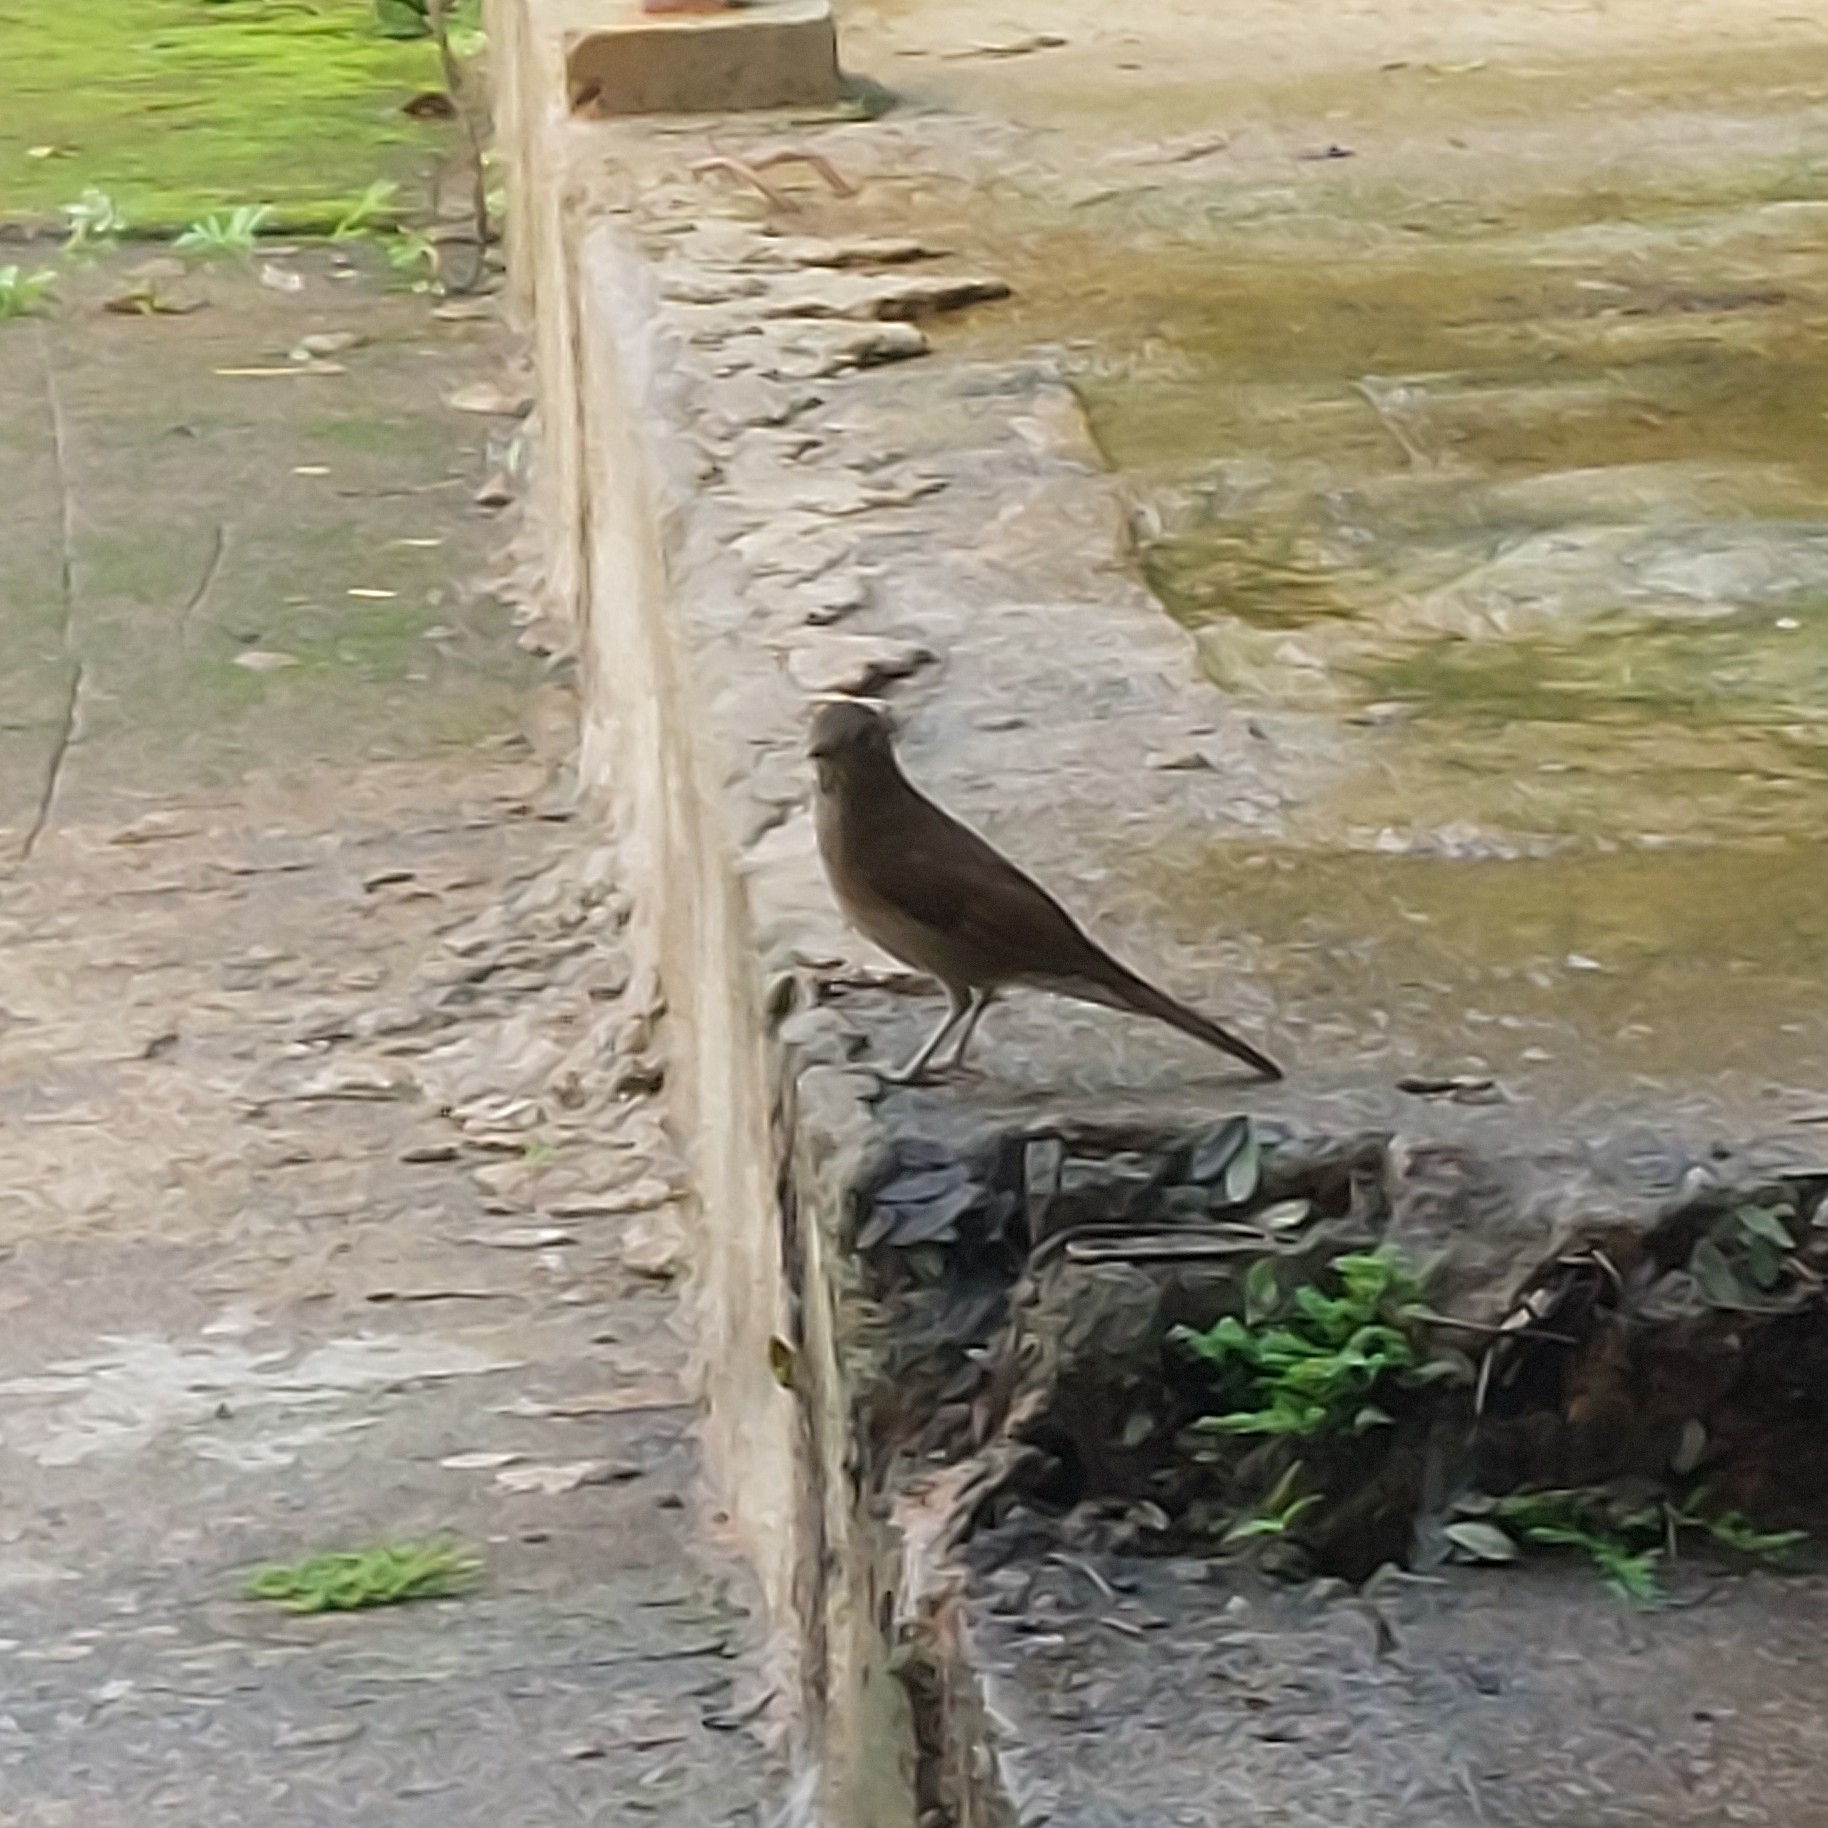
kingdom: Animalia
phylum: Chordata
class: Aves
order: Passeriformes
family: Turdidae
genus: Turdus
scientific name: Turdus leucomelas
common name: Pale-breasted thrush
